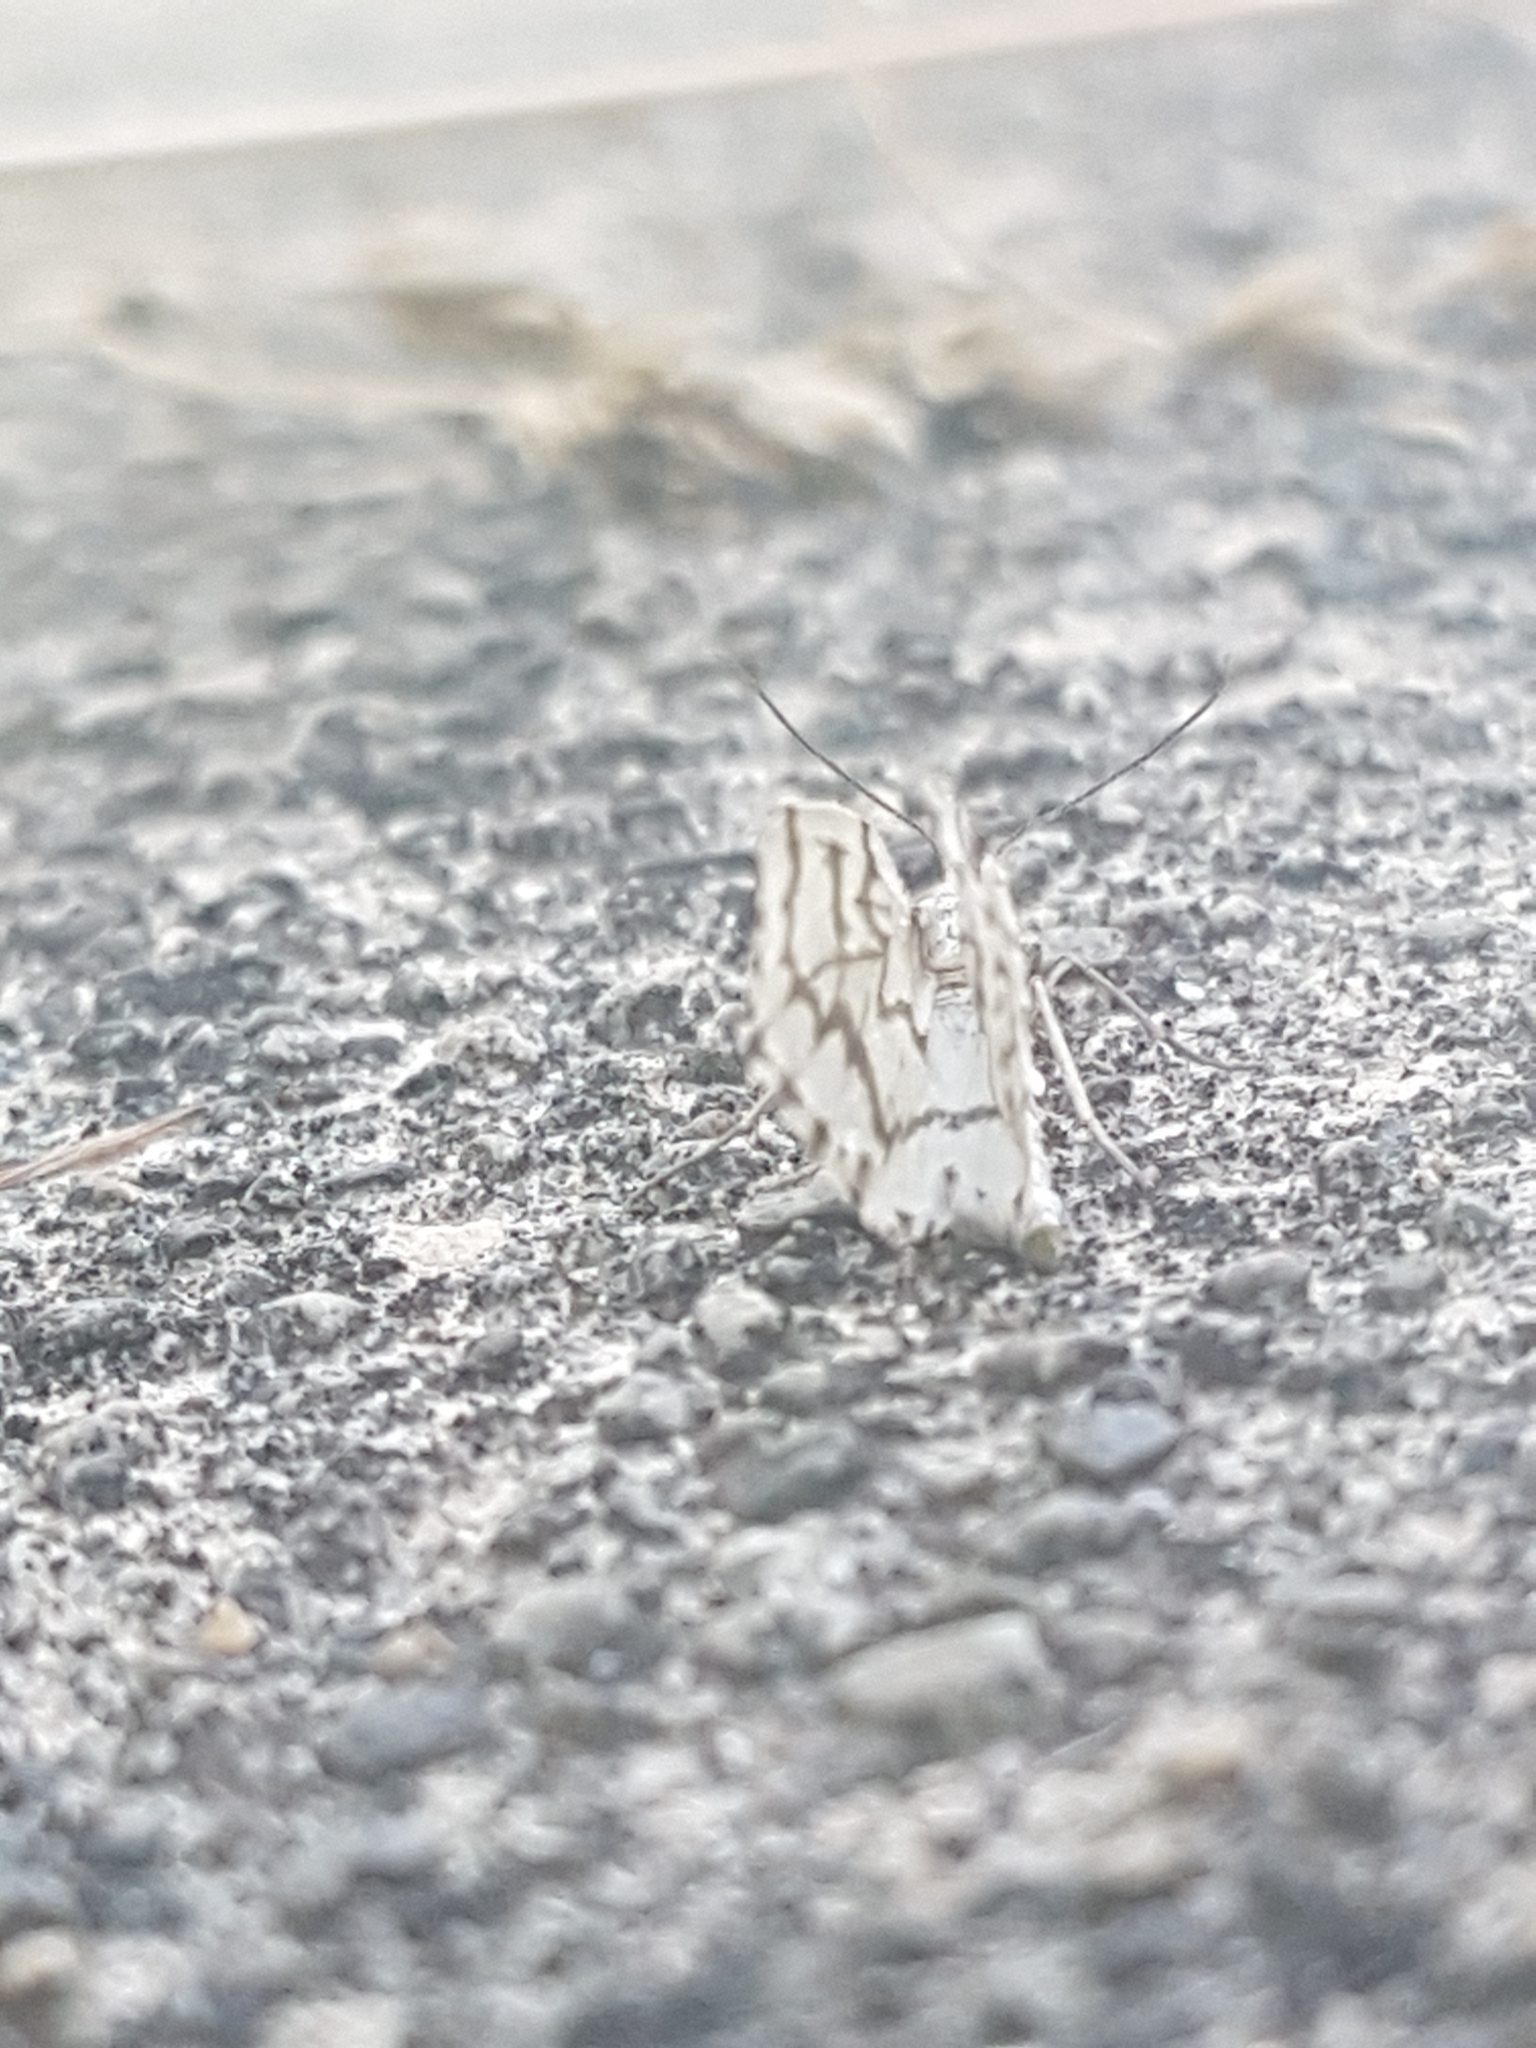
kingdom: Animalia
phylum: Arthropoda
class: Insecta
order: Lepidoptera
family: Geometridae
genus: Nepytia
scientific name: Nepytia phantasmaria
